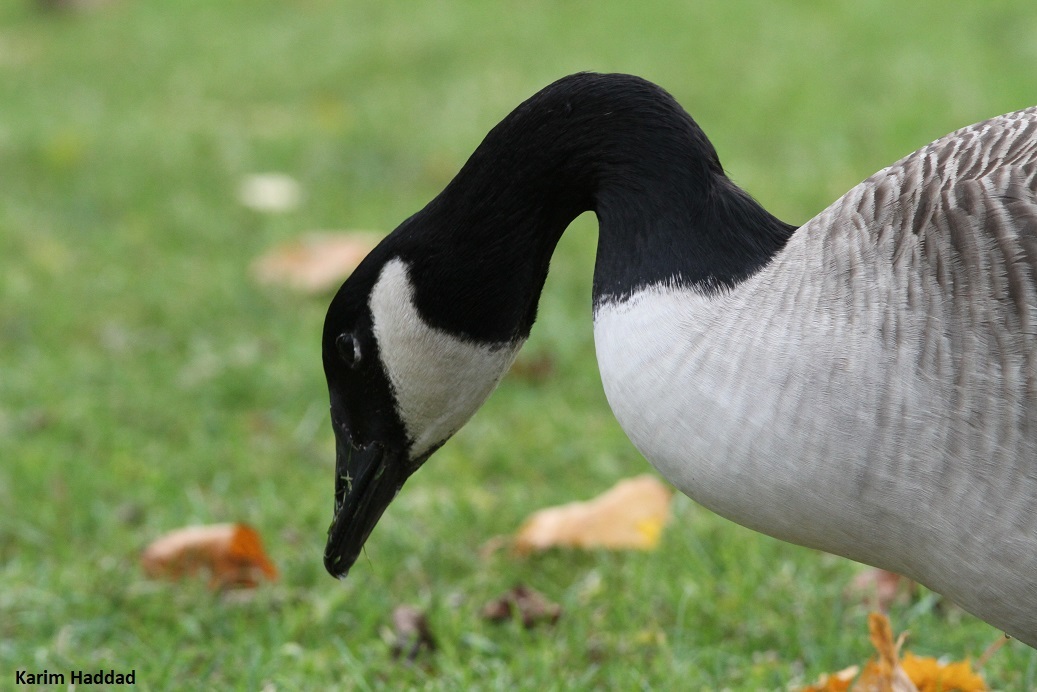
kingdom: Animalia
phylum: Chordata
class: Aves
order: Anseriformes
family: Anatidae
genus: Branta
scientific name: Branta canadensis
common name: Canada goose
